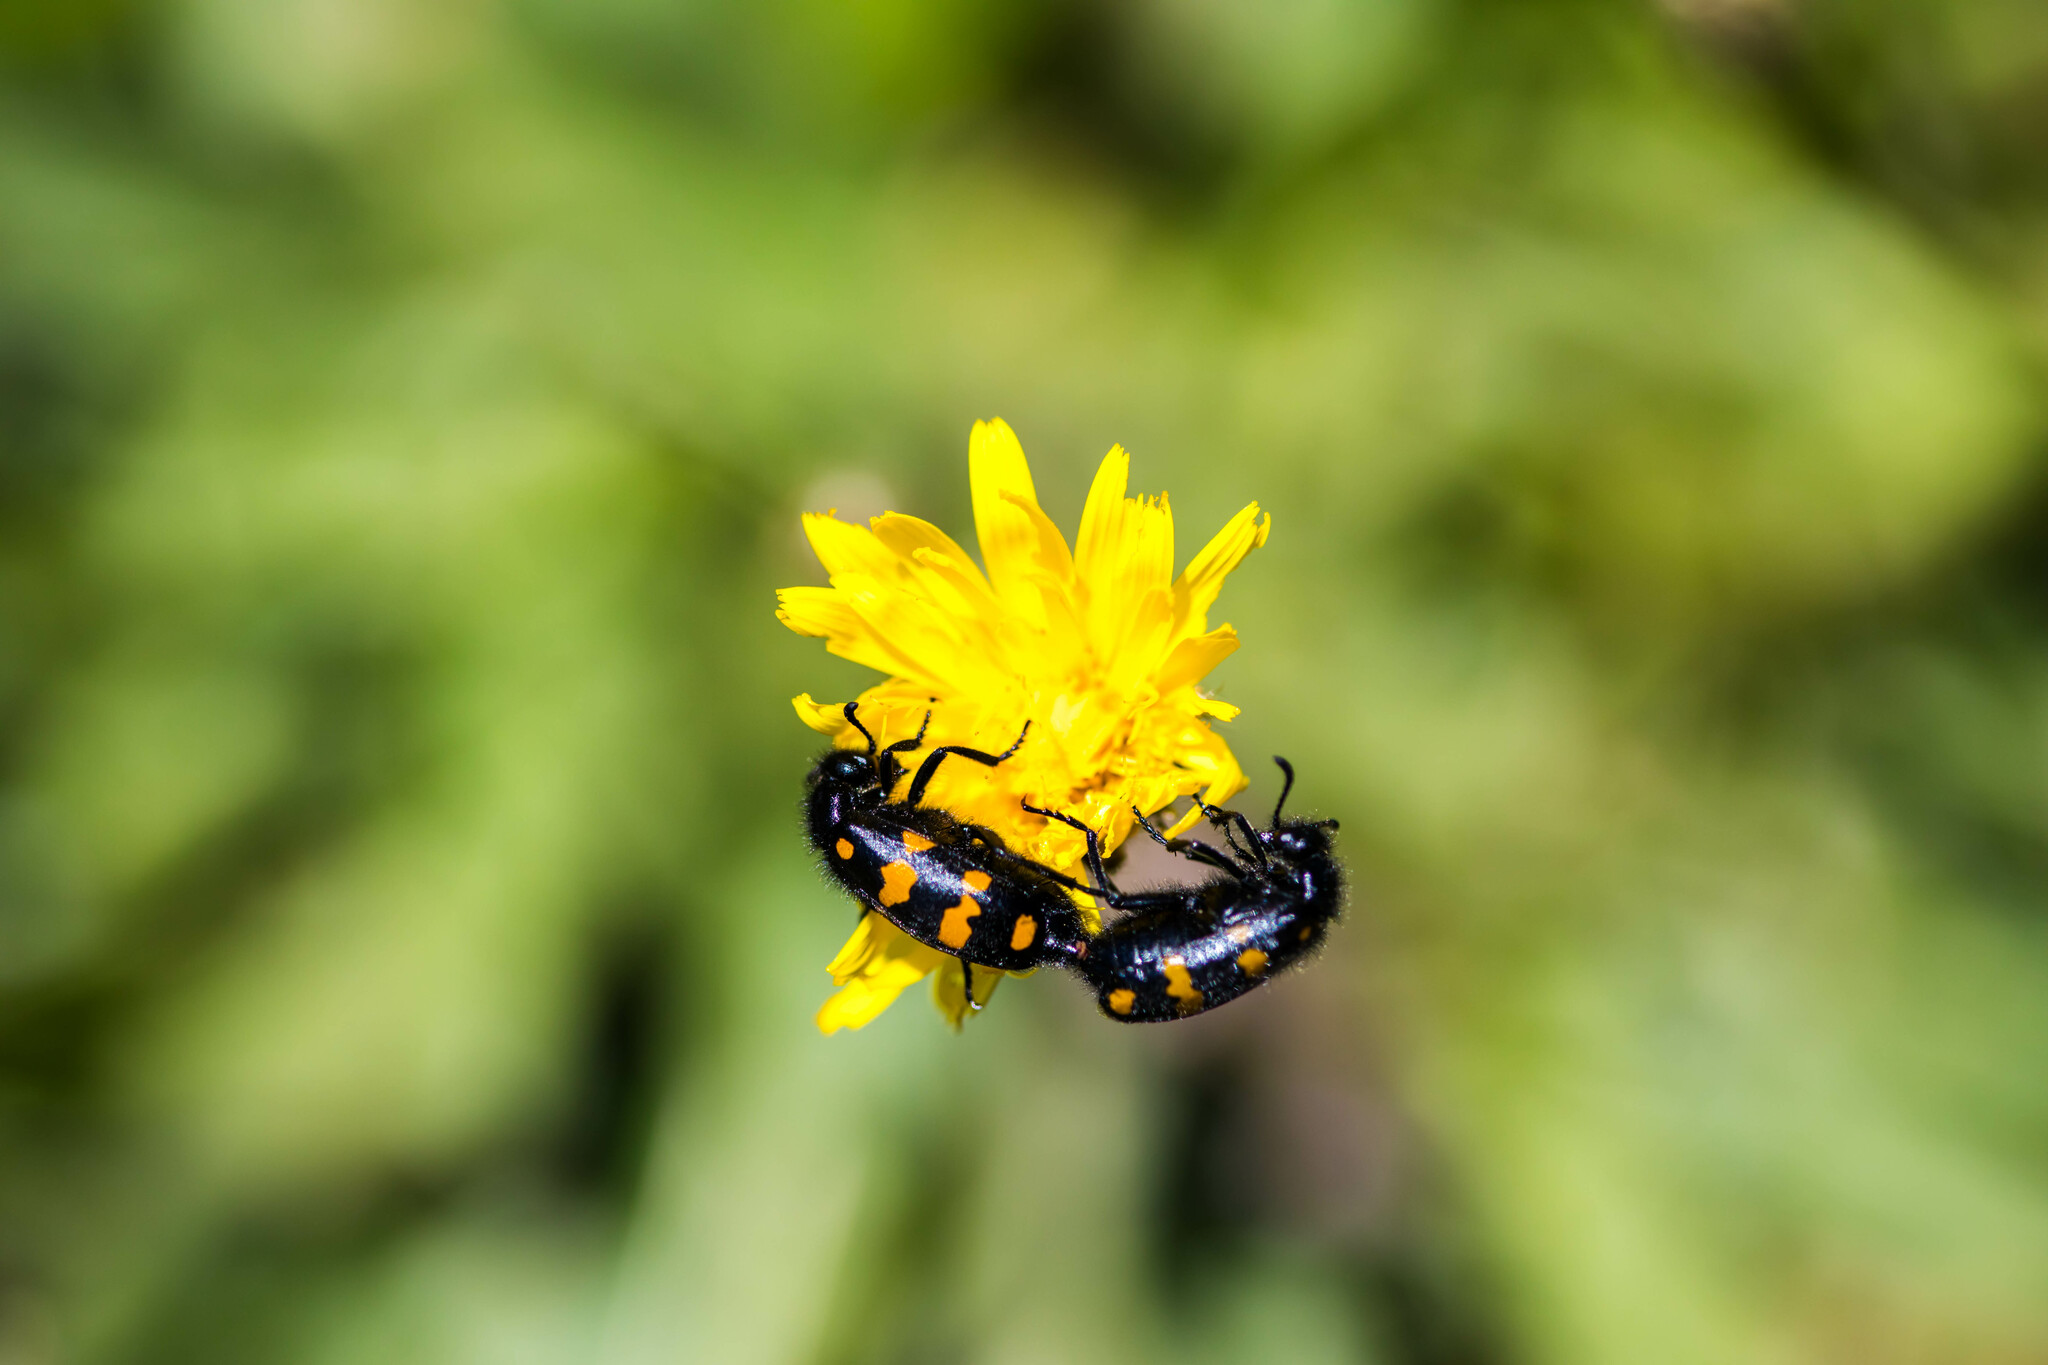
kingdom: Animalia
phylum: Arthropoda
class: Insecta
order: Coleoptera
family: Meloidae
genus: Hycleus
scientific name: Hycleus polymorphus
